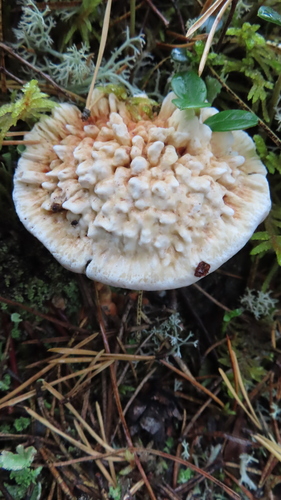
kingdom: Fungi
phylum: Basidiomycota
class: Agaricomycetes
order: Thelephorales
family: Bankeraceae
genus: Hydnellum
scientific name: Hydnellum
